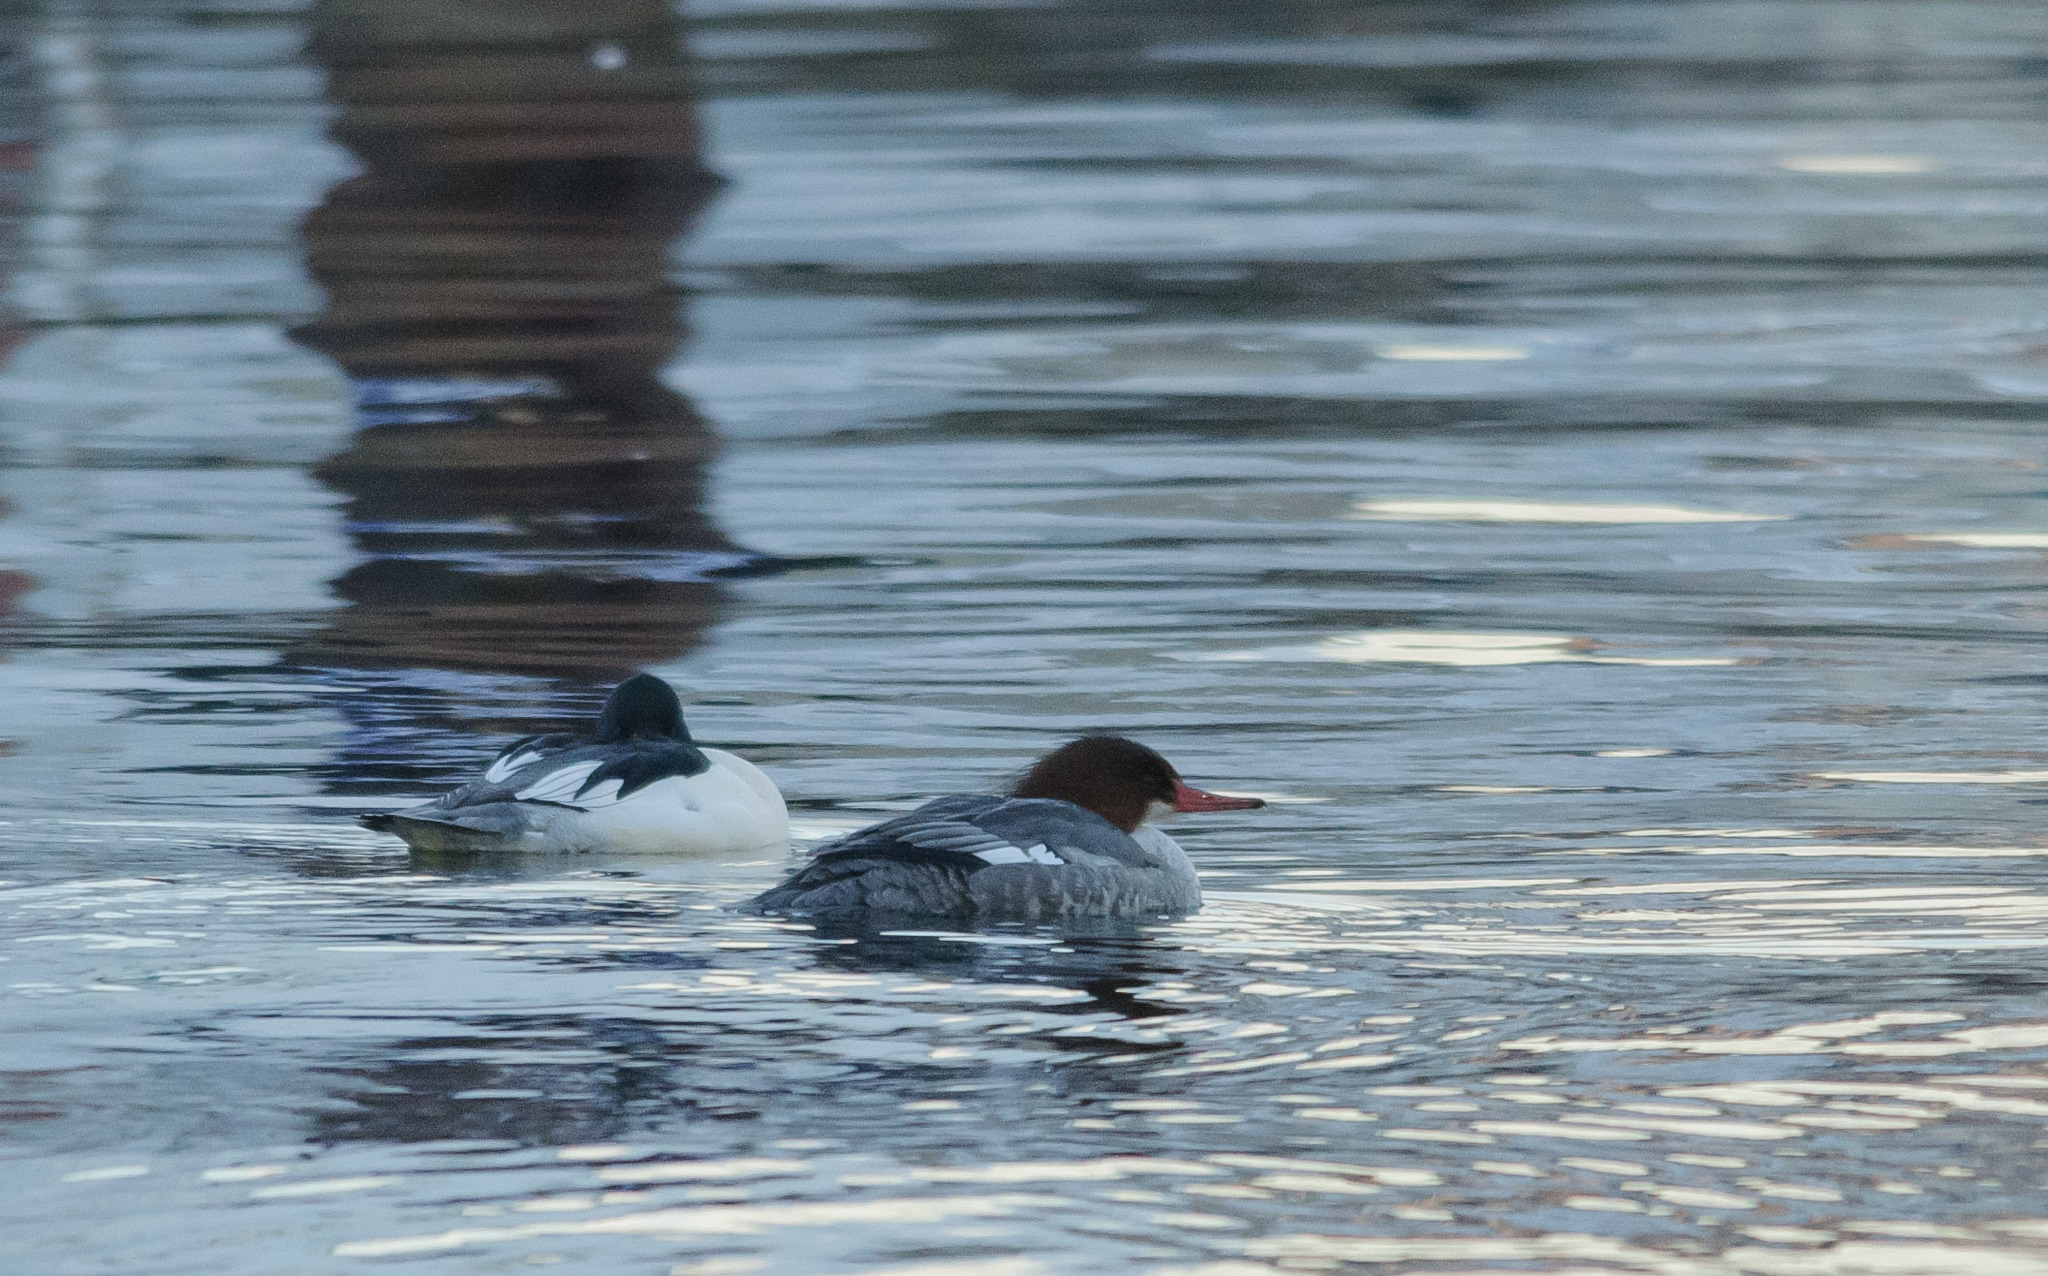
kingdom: Animalia
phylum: Chordata
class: Aves
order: Anseriformes
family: Anatidae
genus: Mergus
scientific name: Mergus merganser
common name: Common merganser
